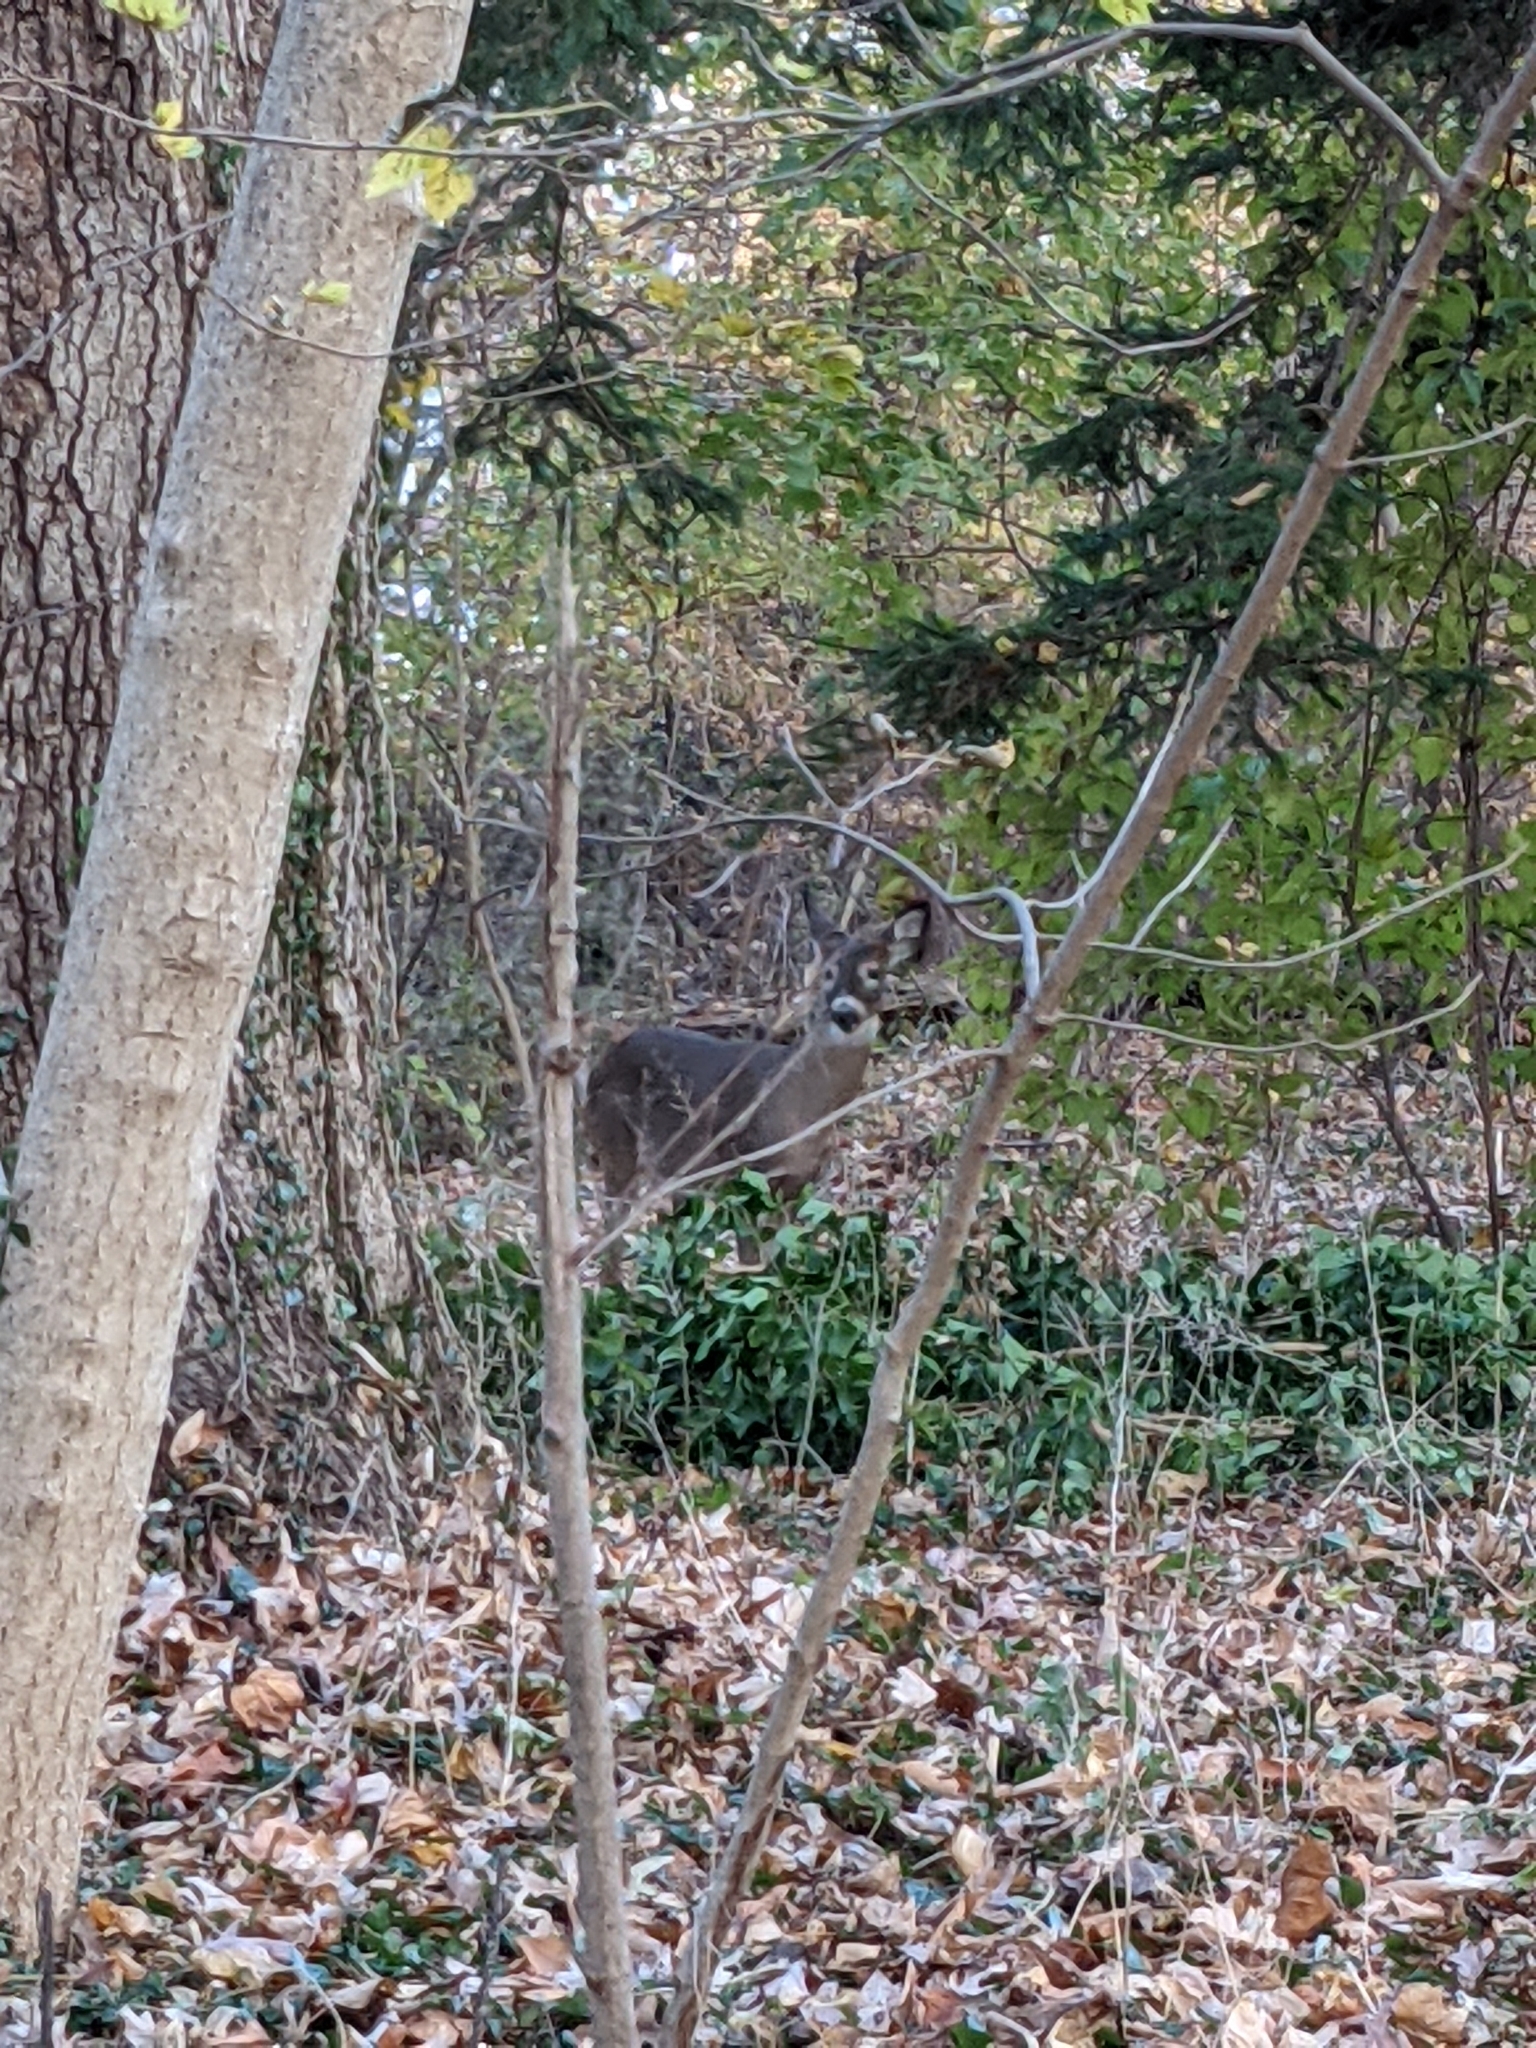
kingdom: Animalia
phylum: Chordata
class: Mammalia
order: Artiodactyla
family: Cervidae
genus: Odocoileus
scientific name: Odocoileus virginianus
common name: White-tailed deer
